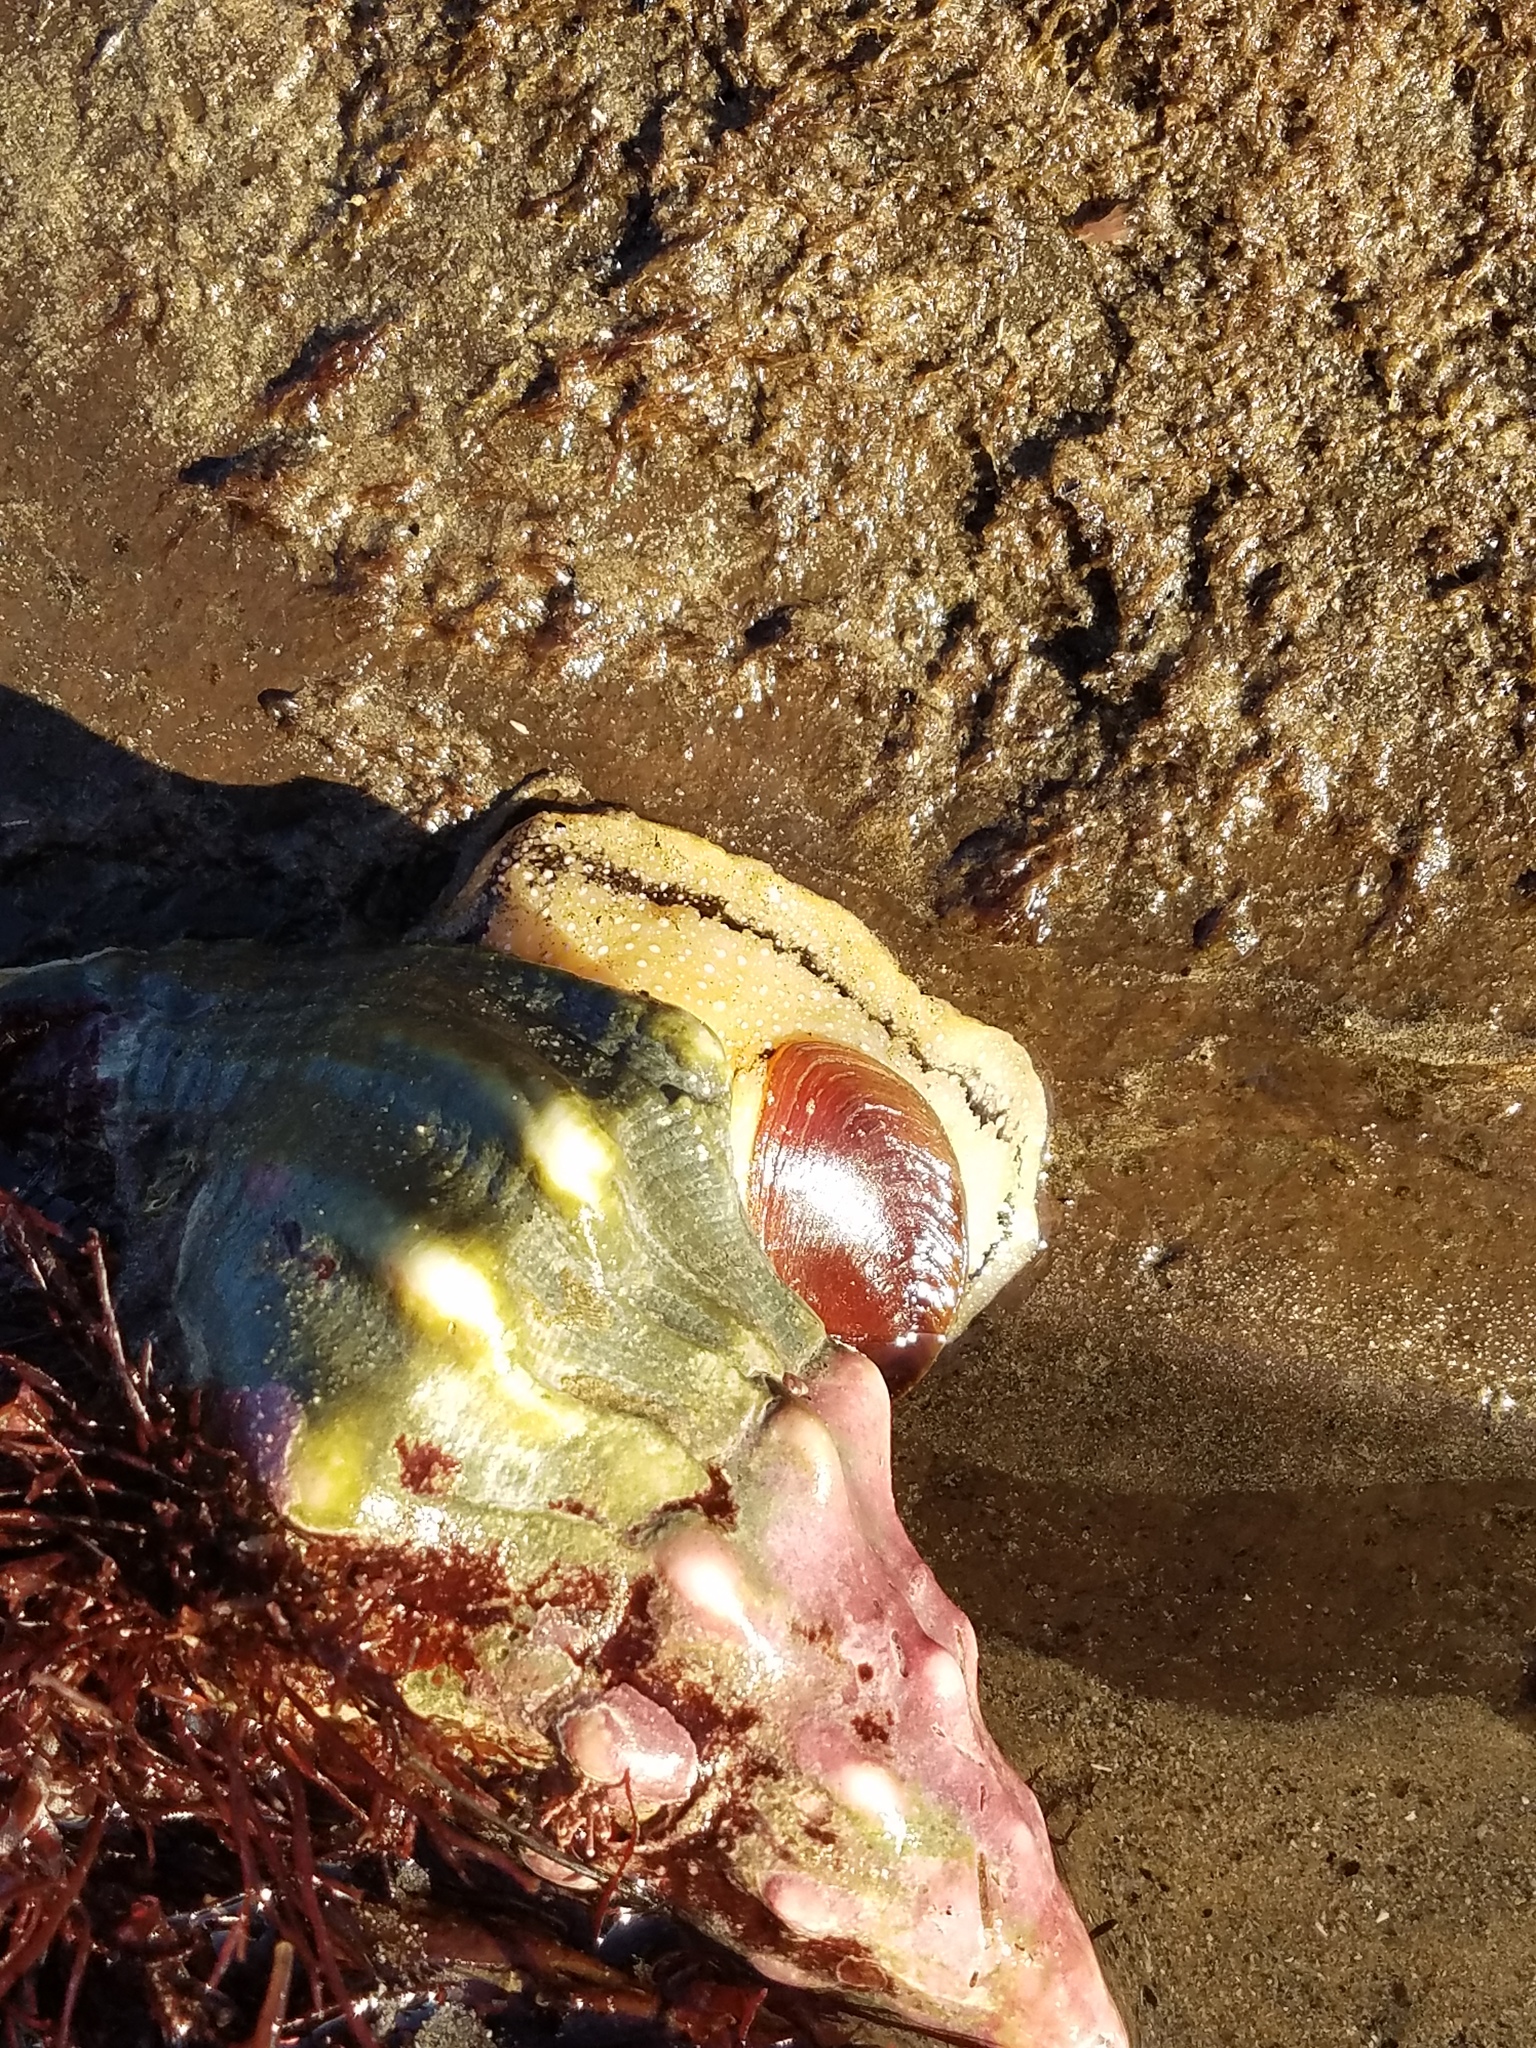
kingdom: Animalia
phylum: Mollusca
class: Gastropoda
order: Neogastropoda
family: Austrosiphonidae
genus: Kelletia
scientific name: Kelletia kelletii
